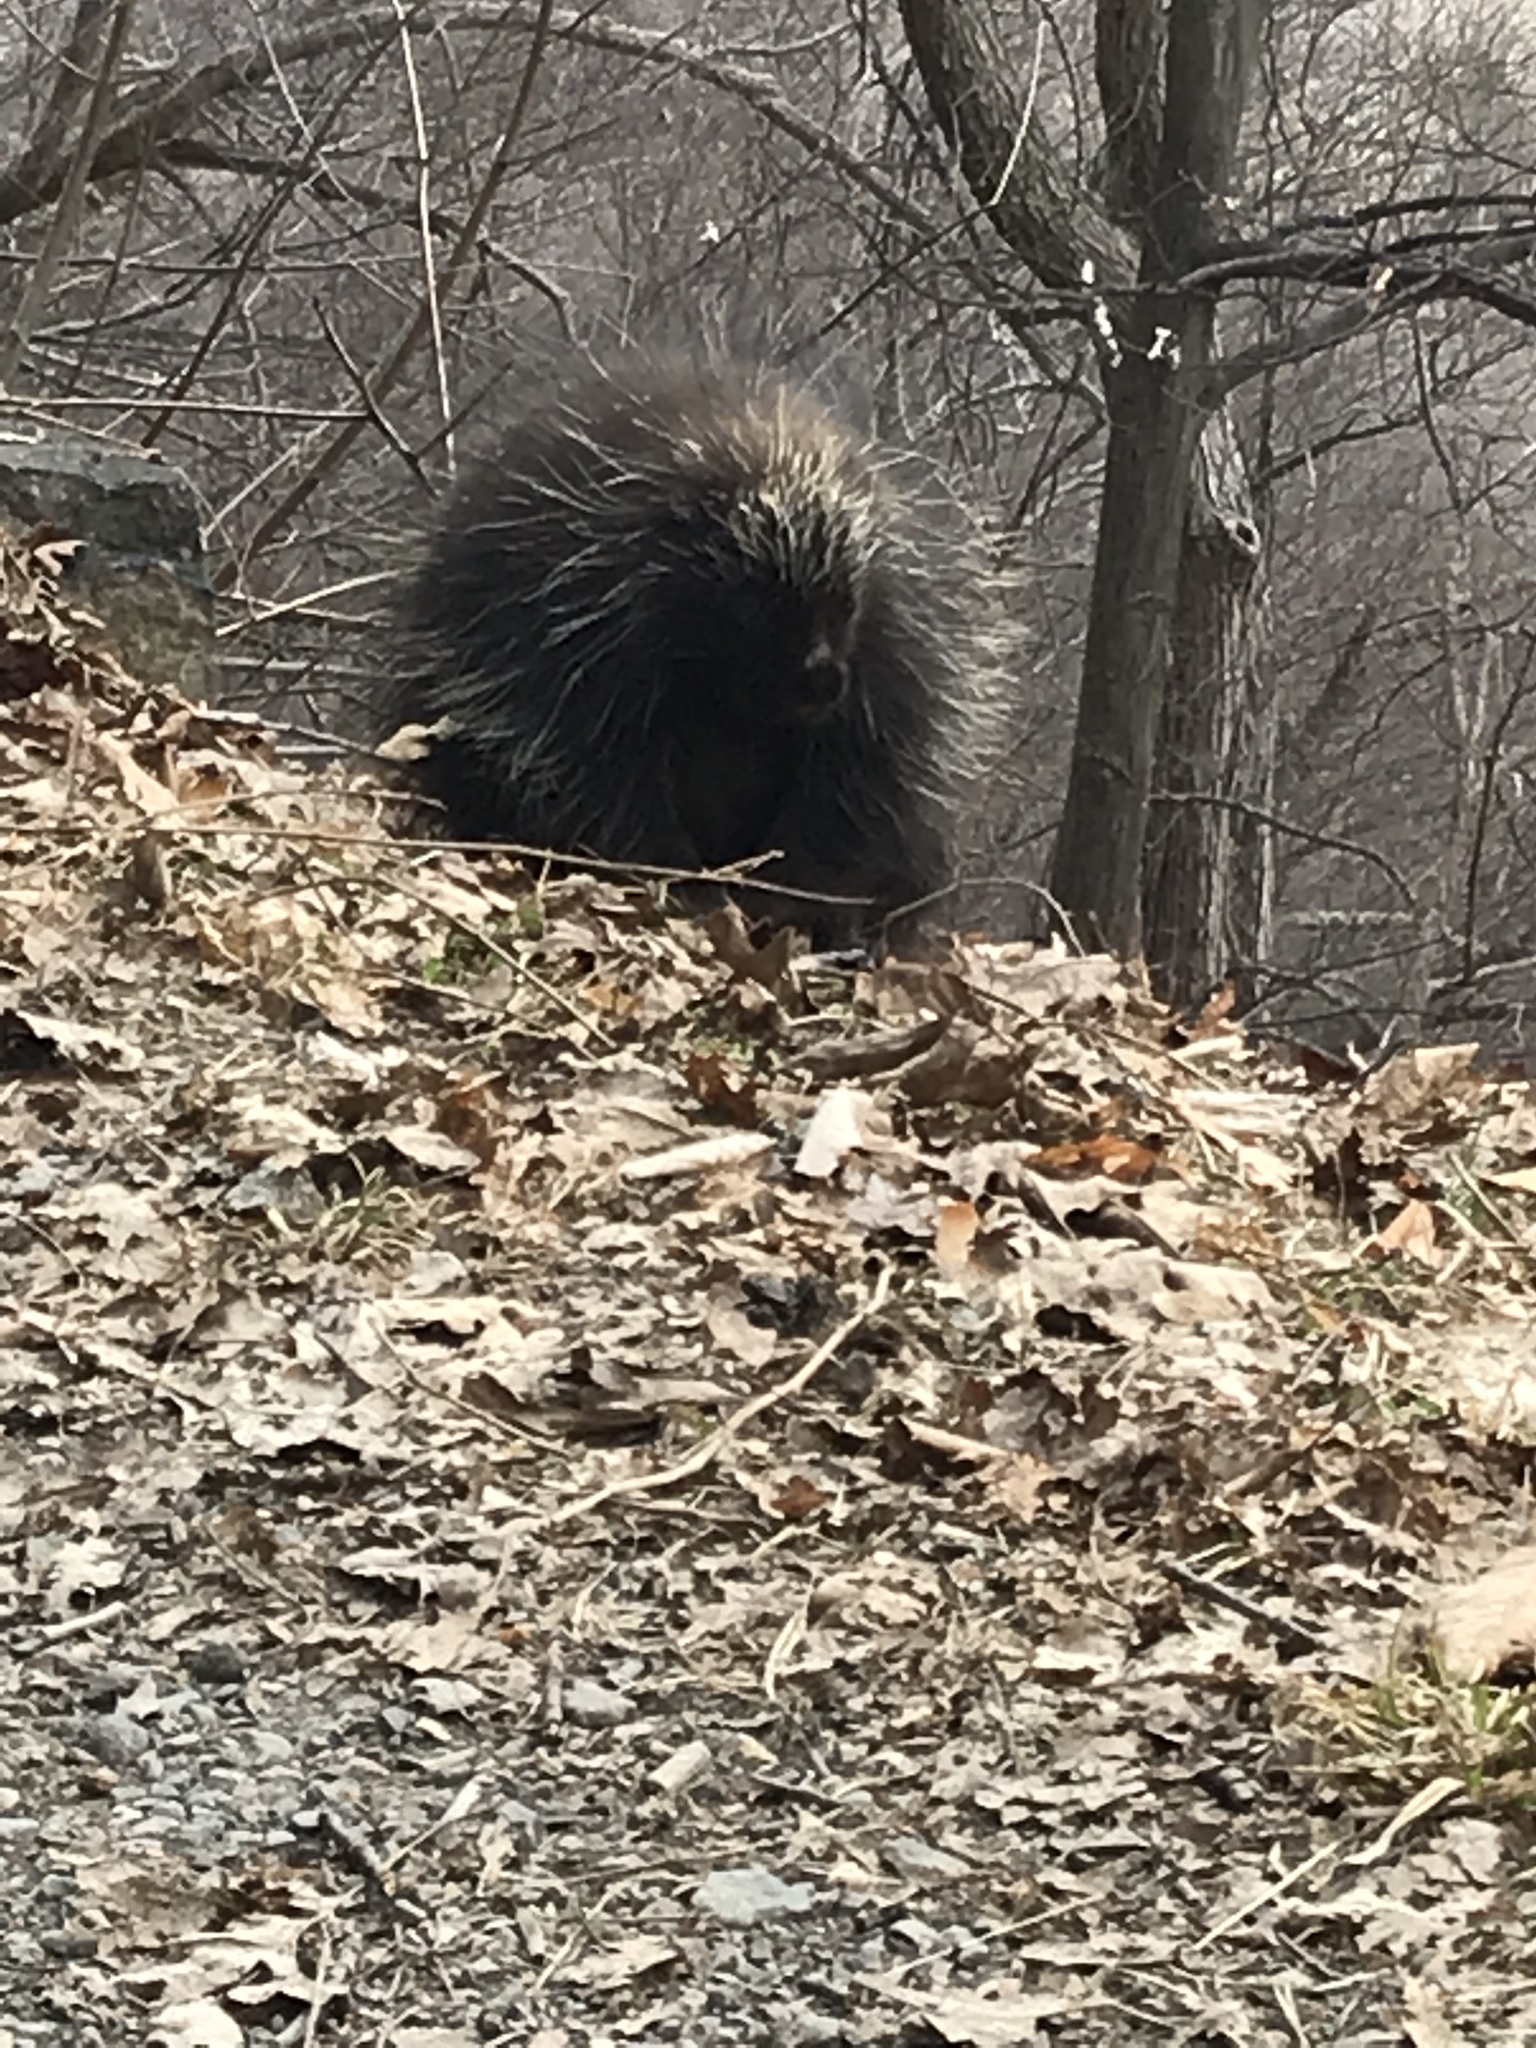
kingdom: Animalia
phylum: Chordata
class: Mammalia
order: Rodentia
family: Erethizontidae
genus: Erethizon
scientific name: Erethizon dorsatus
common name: North american porcupine
